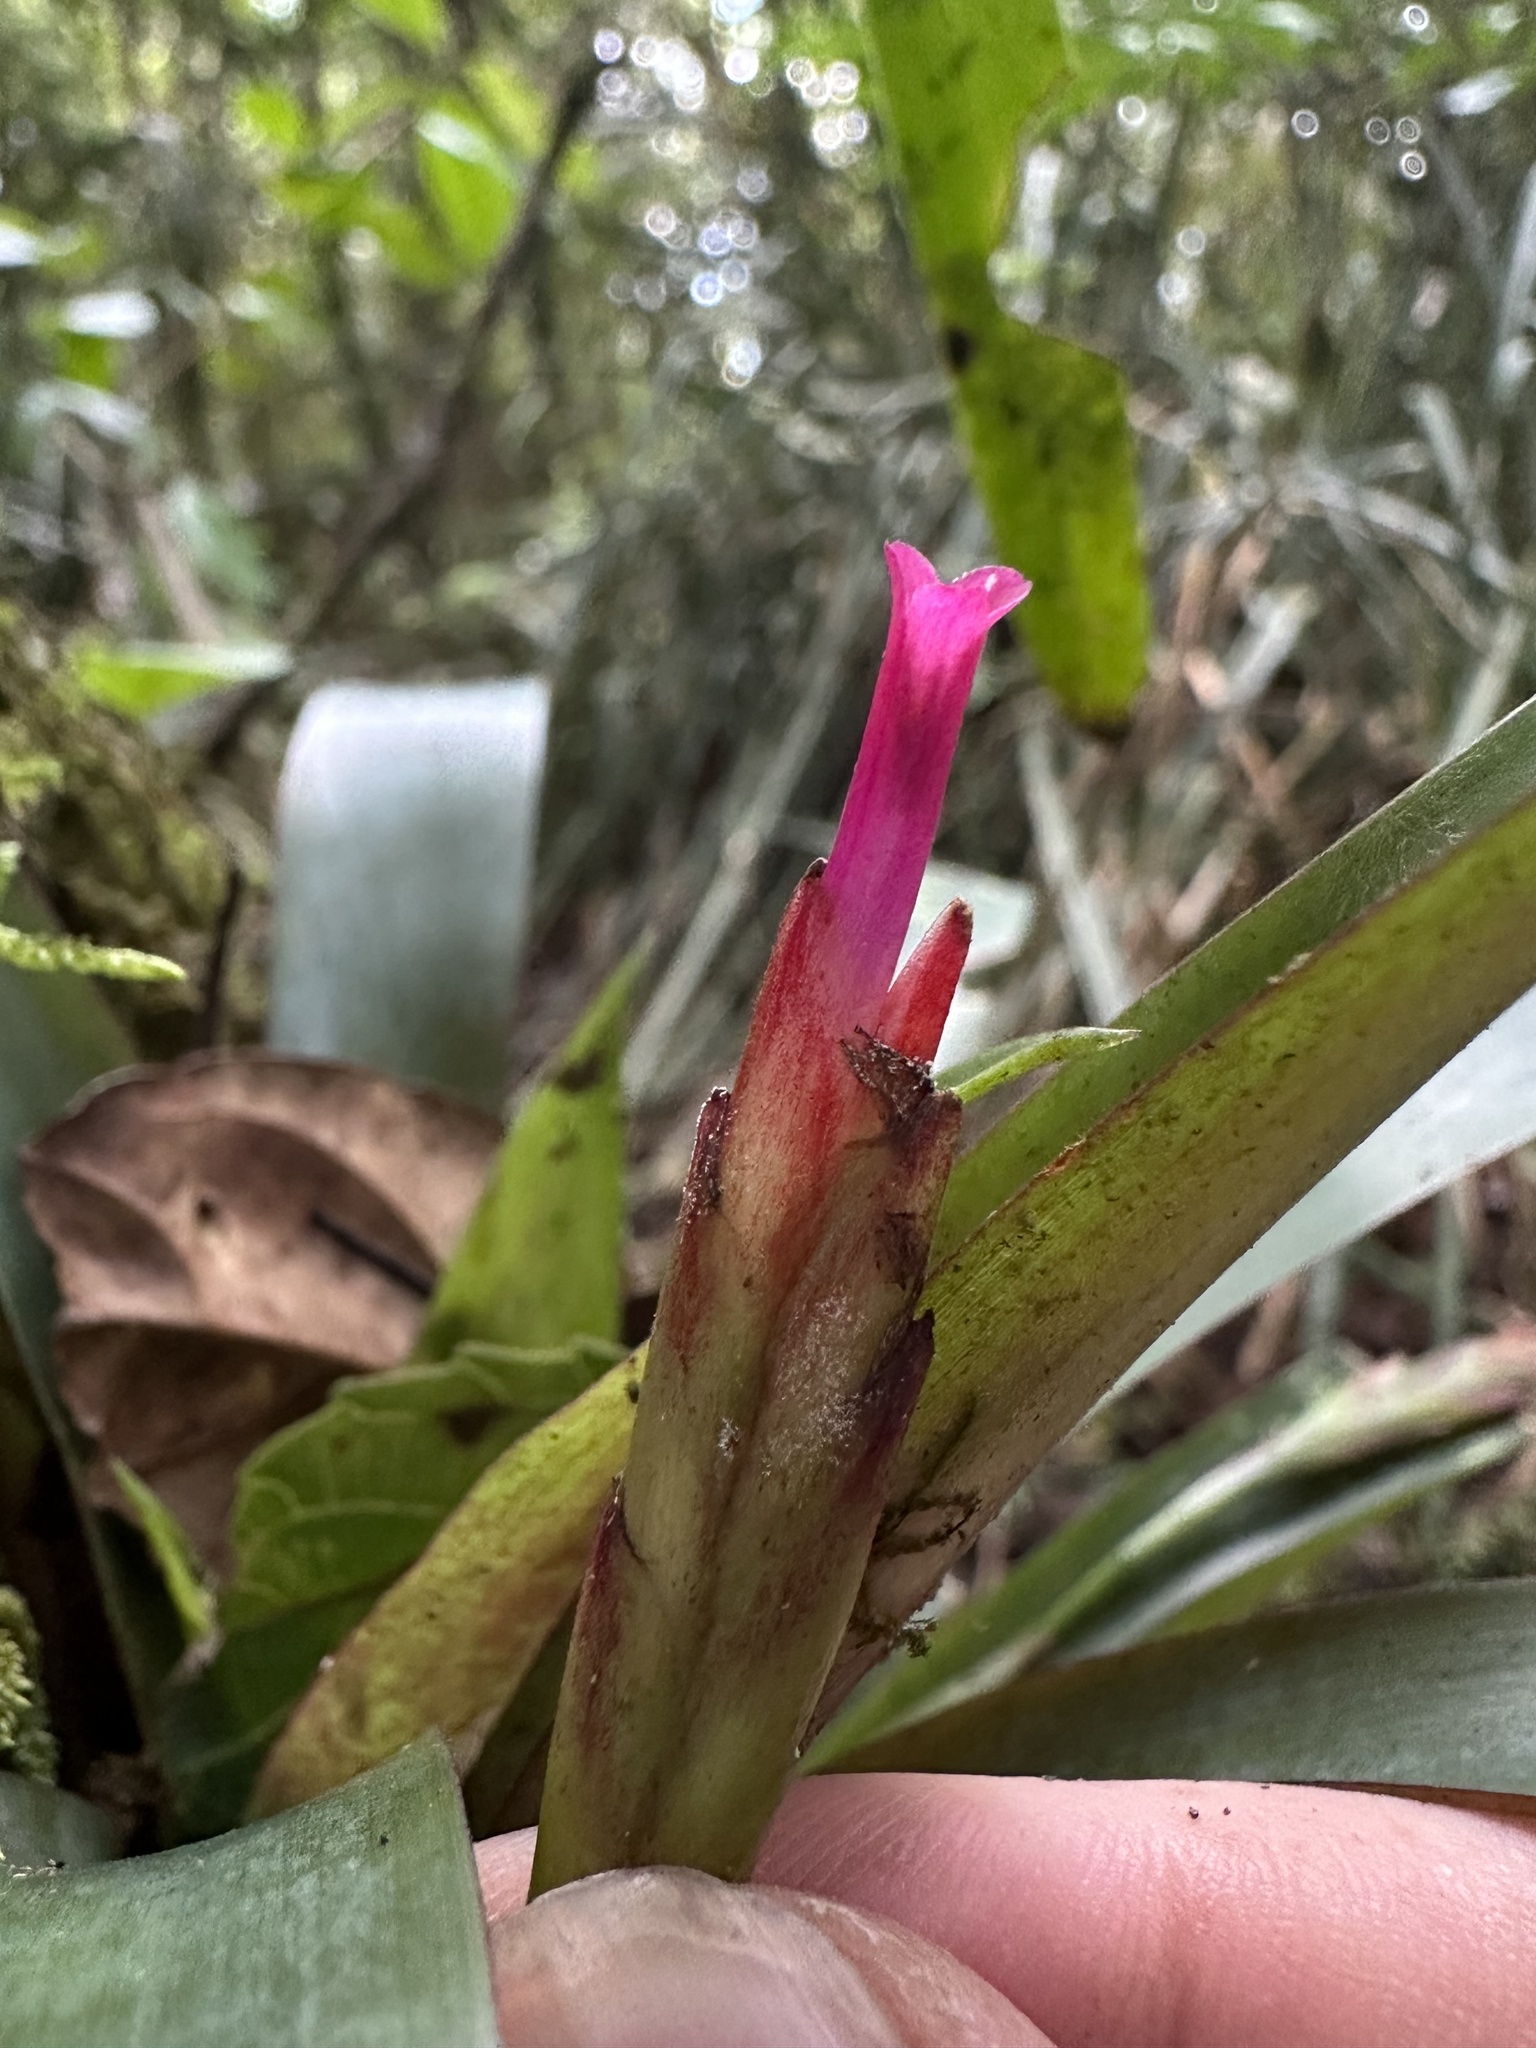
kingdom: Plantae
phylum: Tracheophyta
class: Liliopsida
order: Poales
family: Bromeliaceae
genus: Tillandsia
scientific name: Tillandsia complanata
